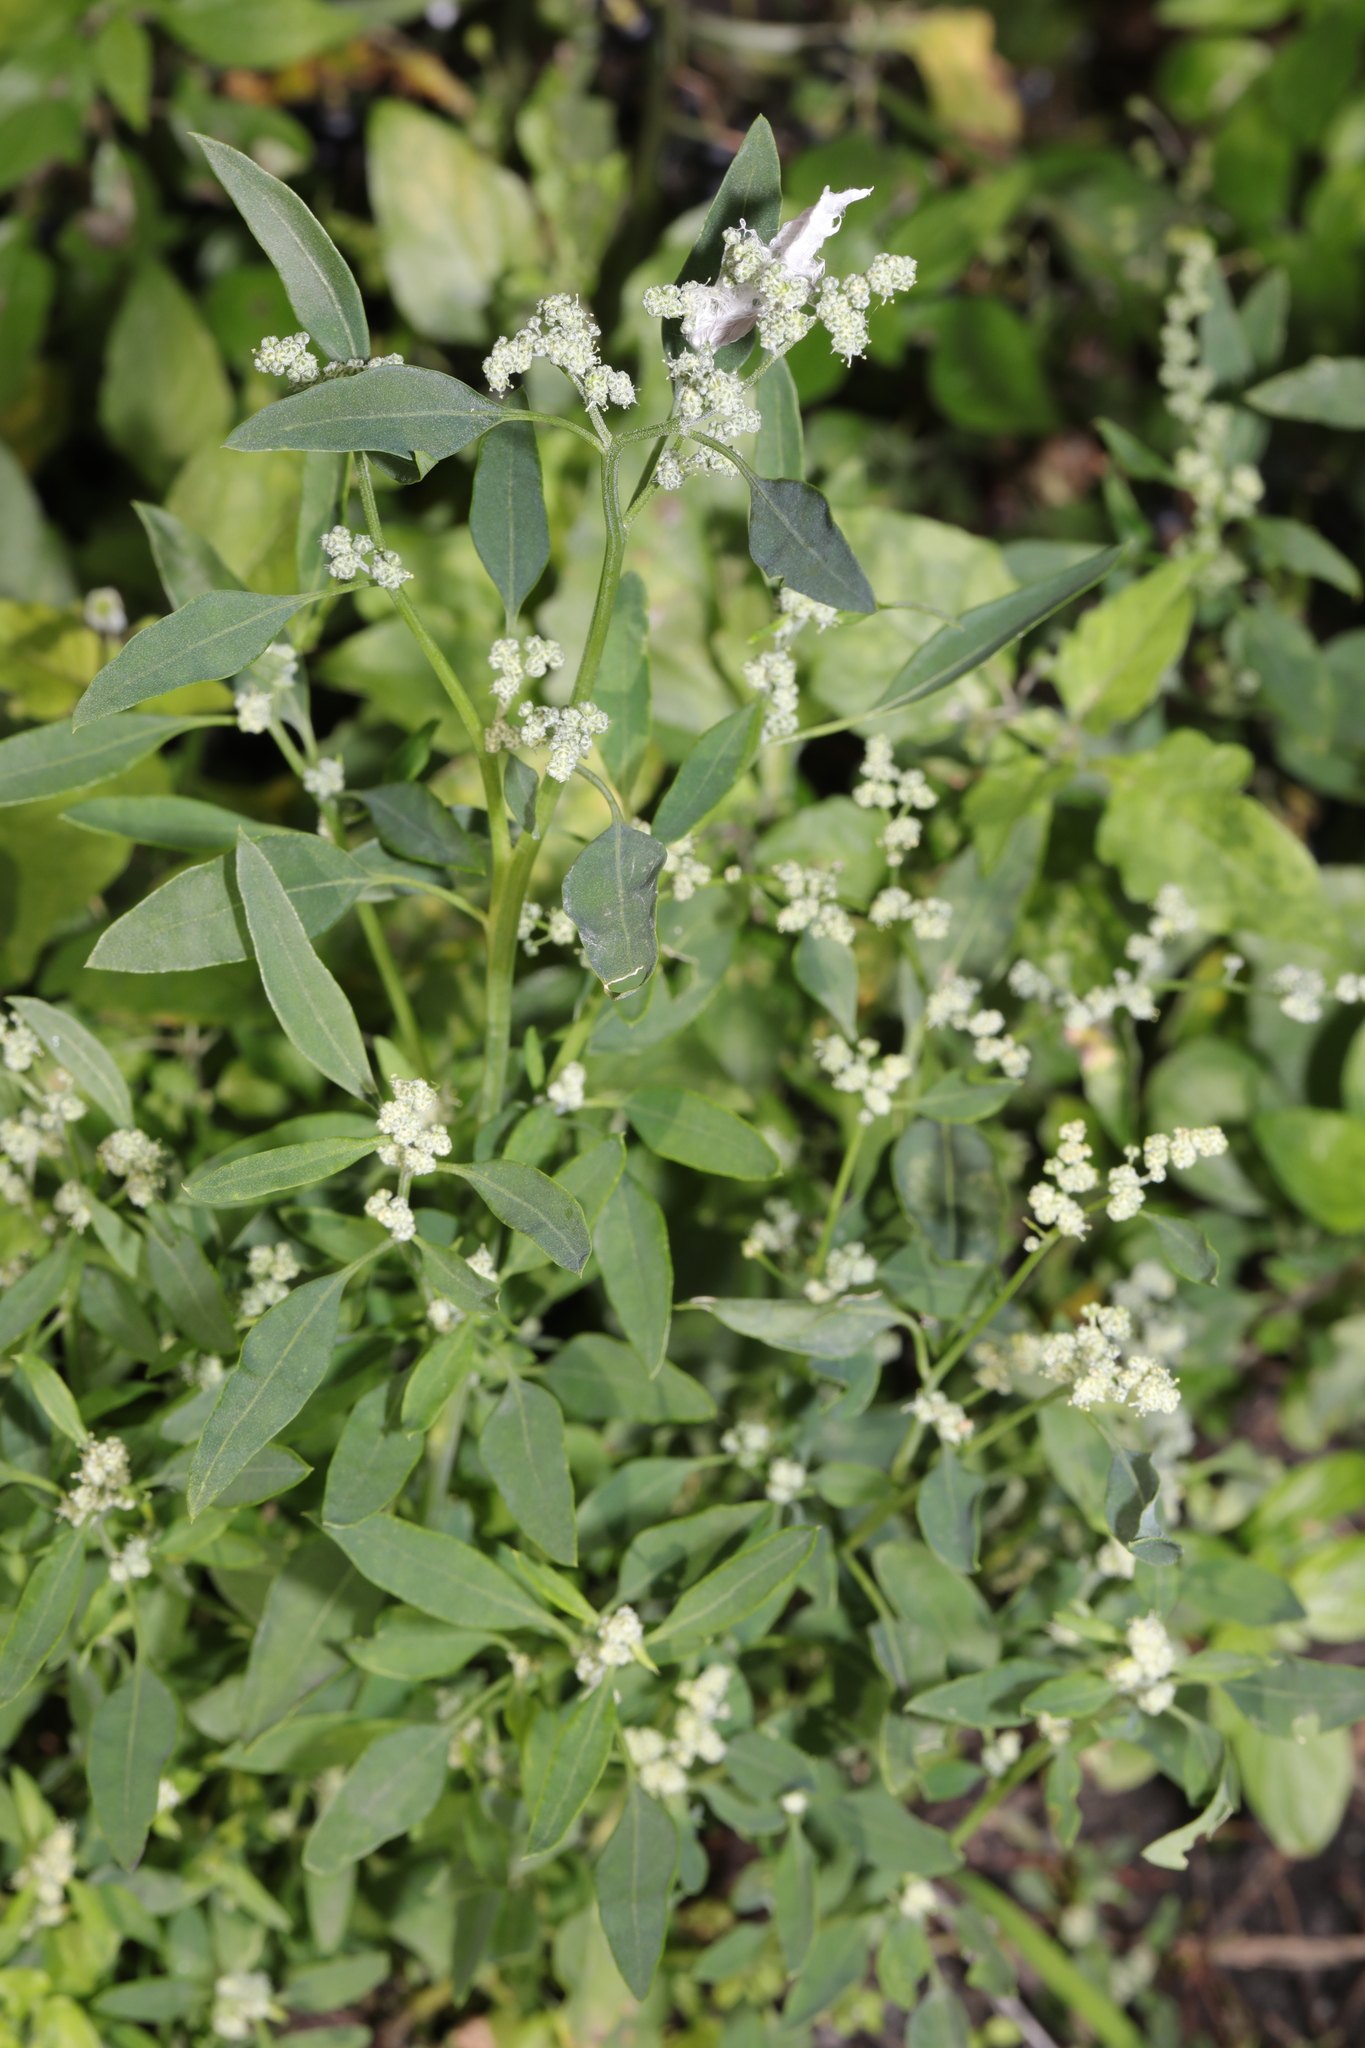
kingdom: Plantae
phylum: Tracheophyta
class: Magnoliopsida
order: Caryophyllales
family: Amaranthaceae
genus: Chenopodium
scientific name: Chenopodium album
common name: Fat-hen
